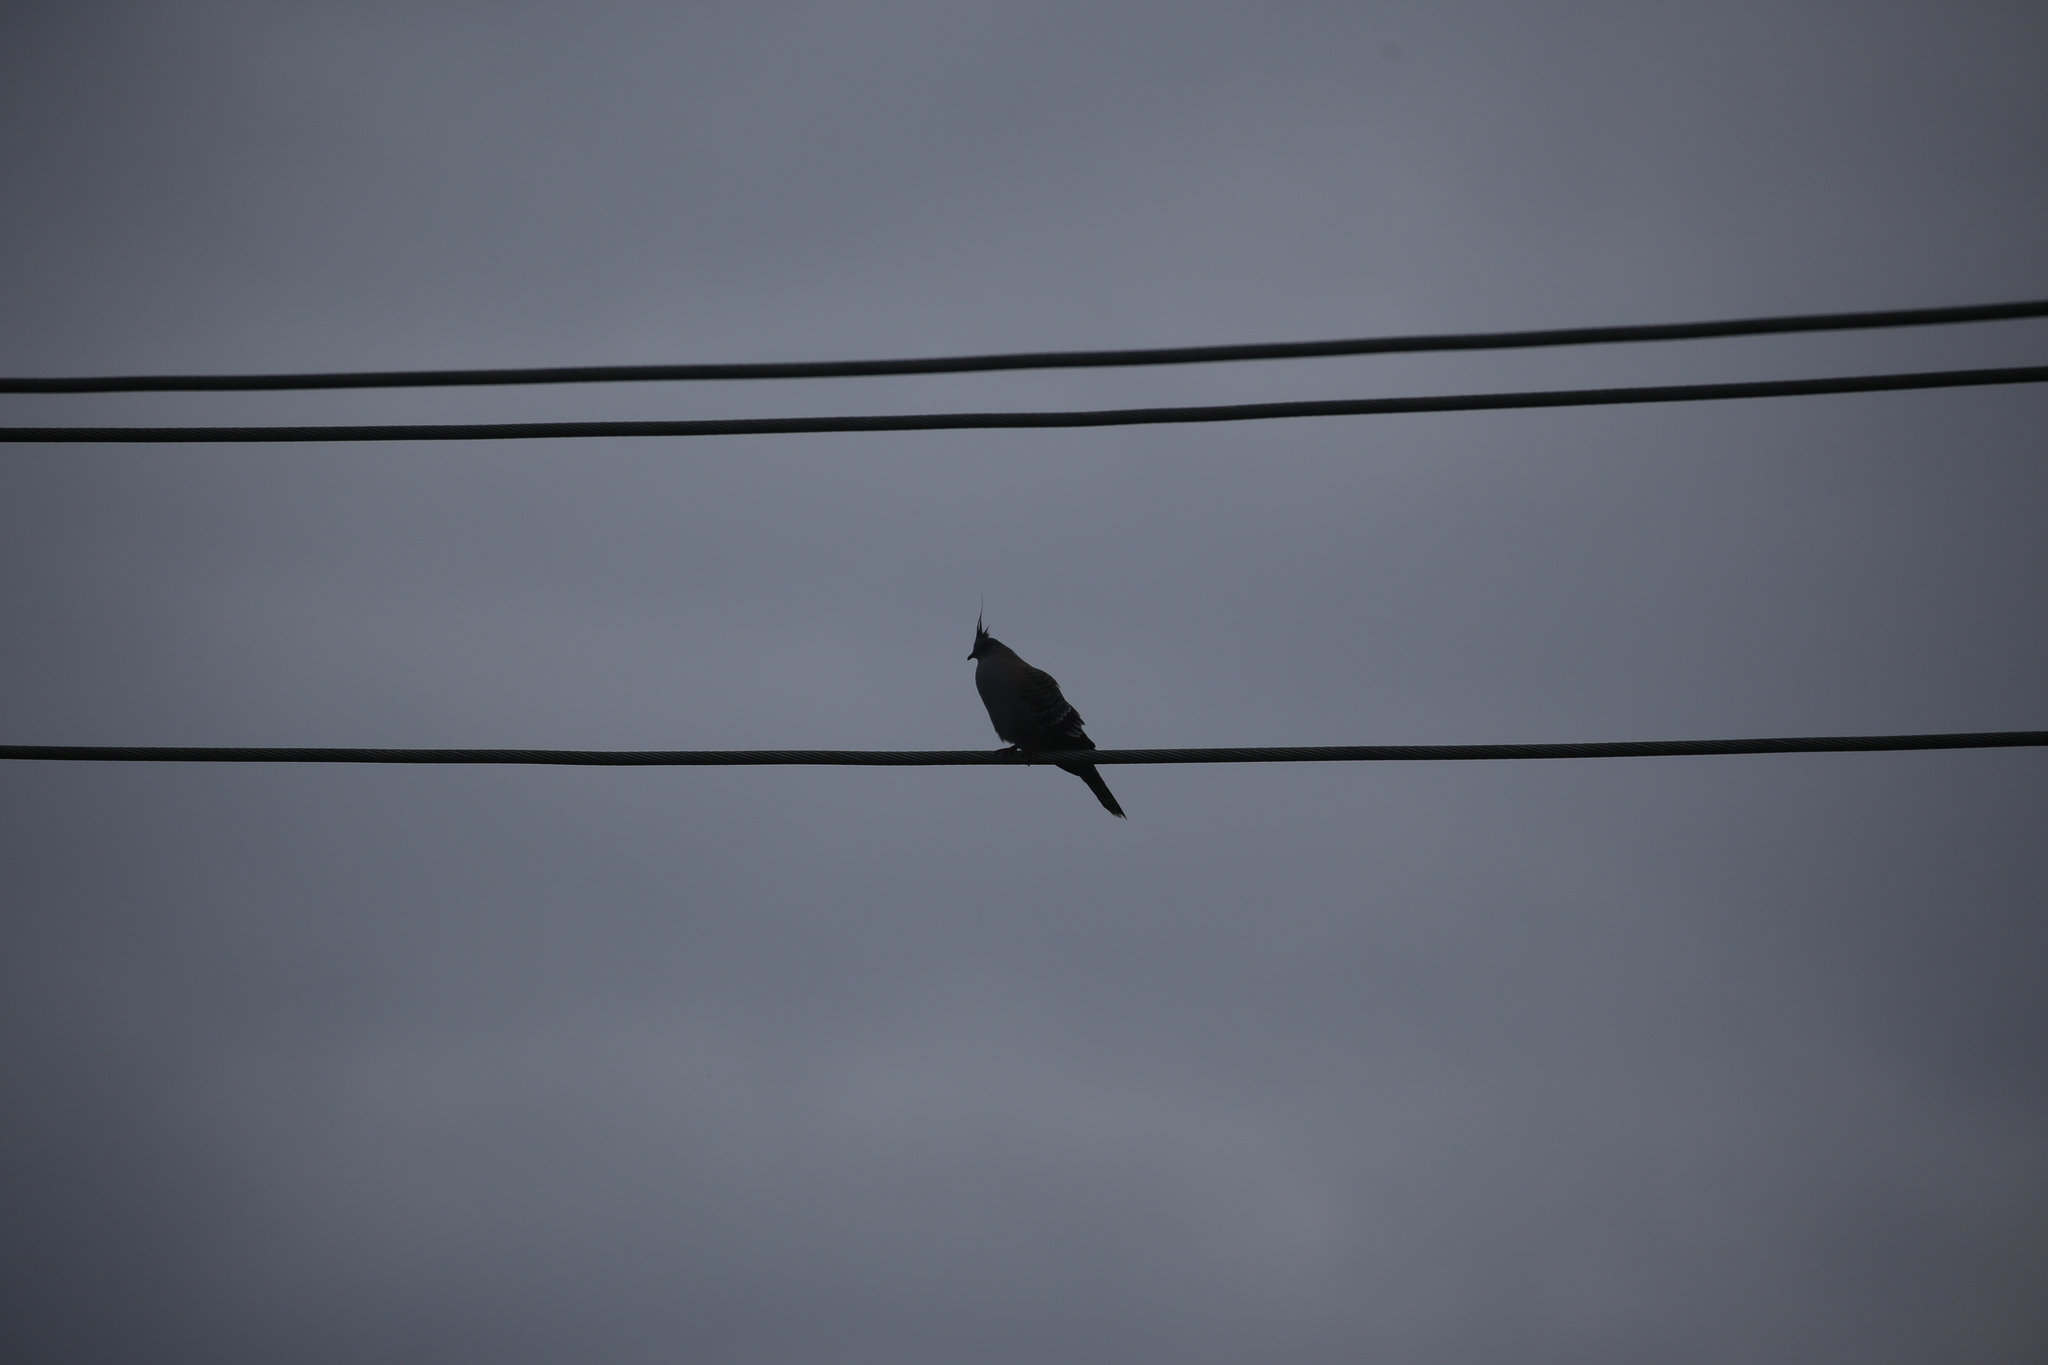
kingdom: Animalia
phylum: Chordata
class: Aves
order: Columbiformes
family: Columbidae
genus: Ocyphaps
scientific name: Ocyphaps lophotes
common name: Crested pigeon
